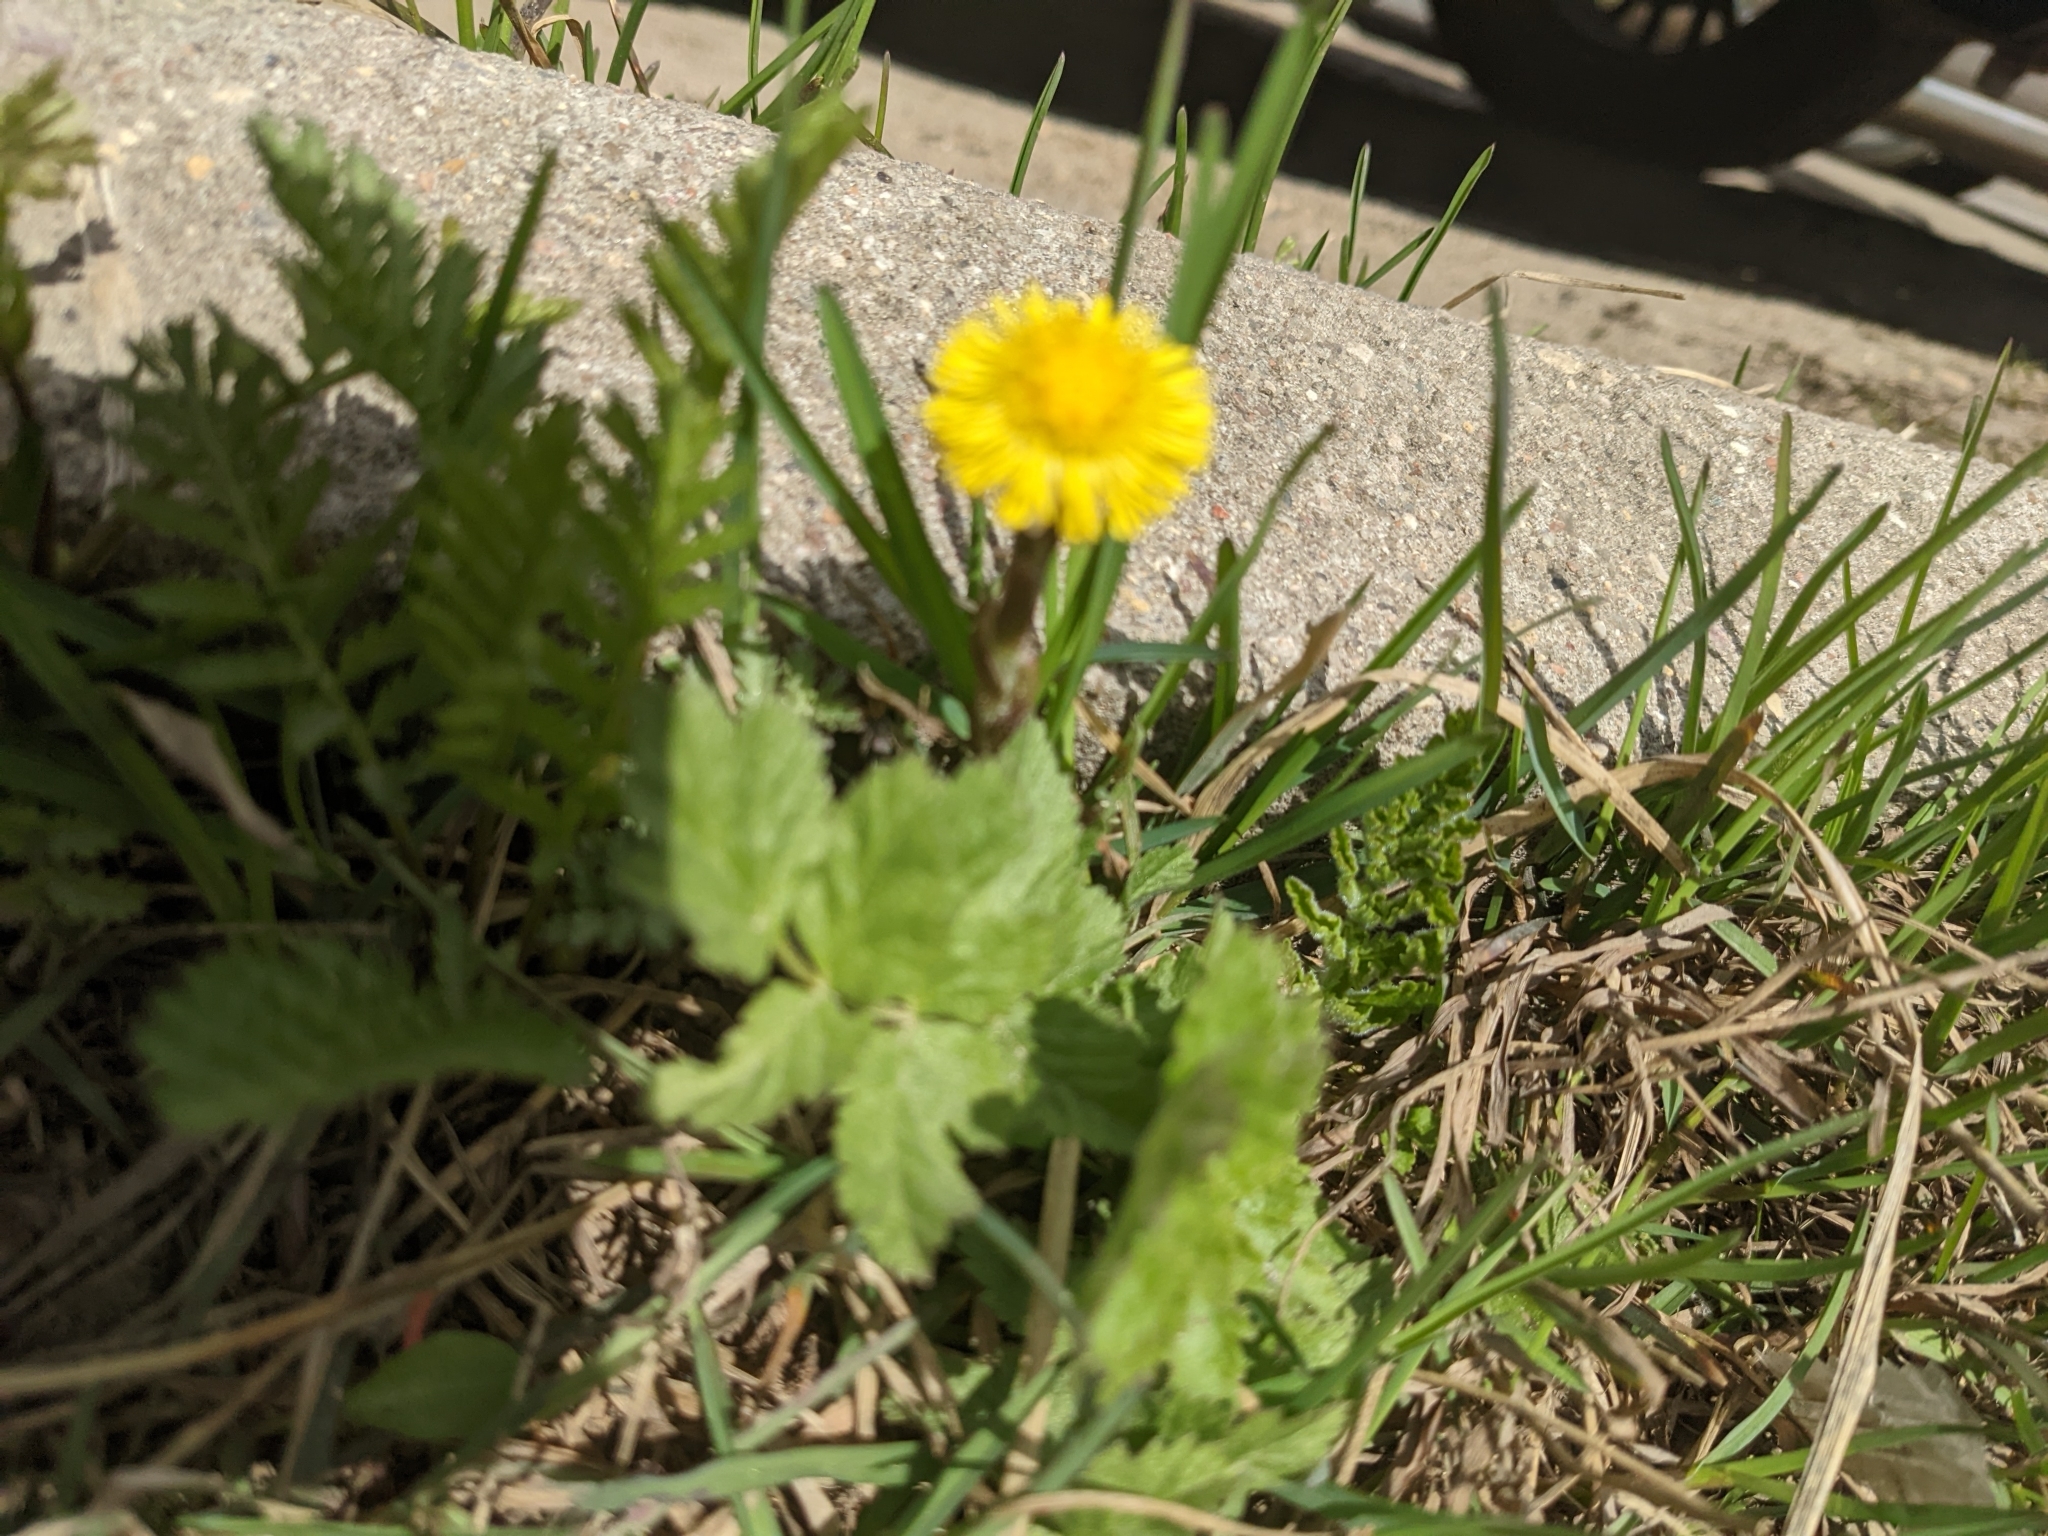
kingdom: Plantae
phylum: Tracheophyta
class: Magnoliopsida
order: Asterales
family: Asteraceae
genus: Tussilago
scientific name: Tussilago farfara
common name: Coltsfoot
